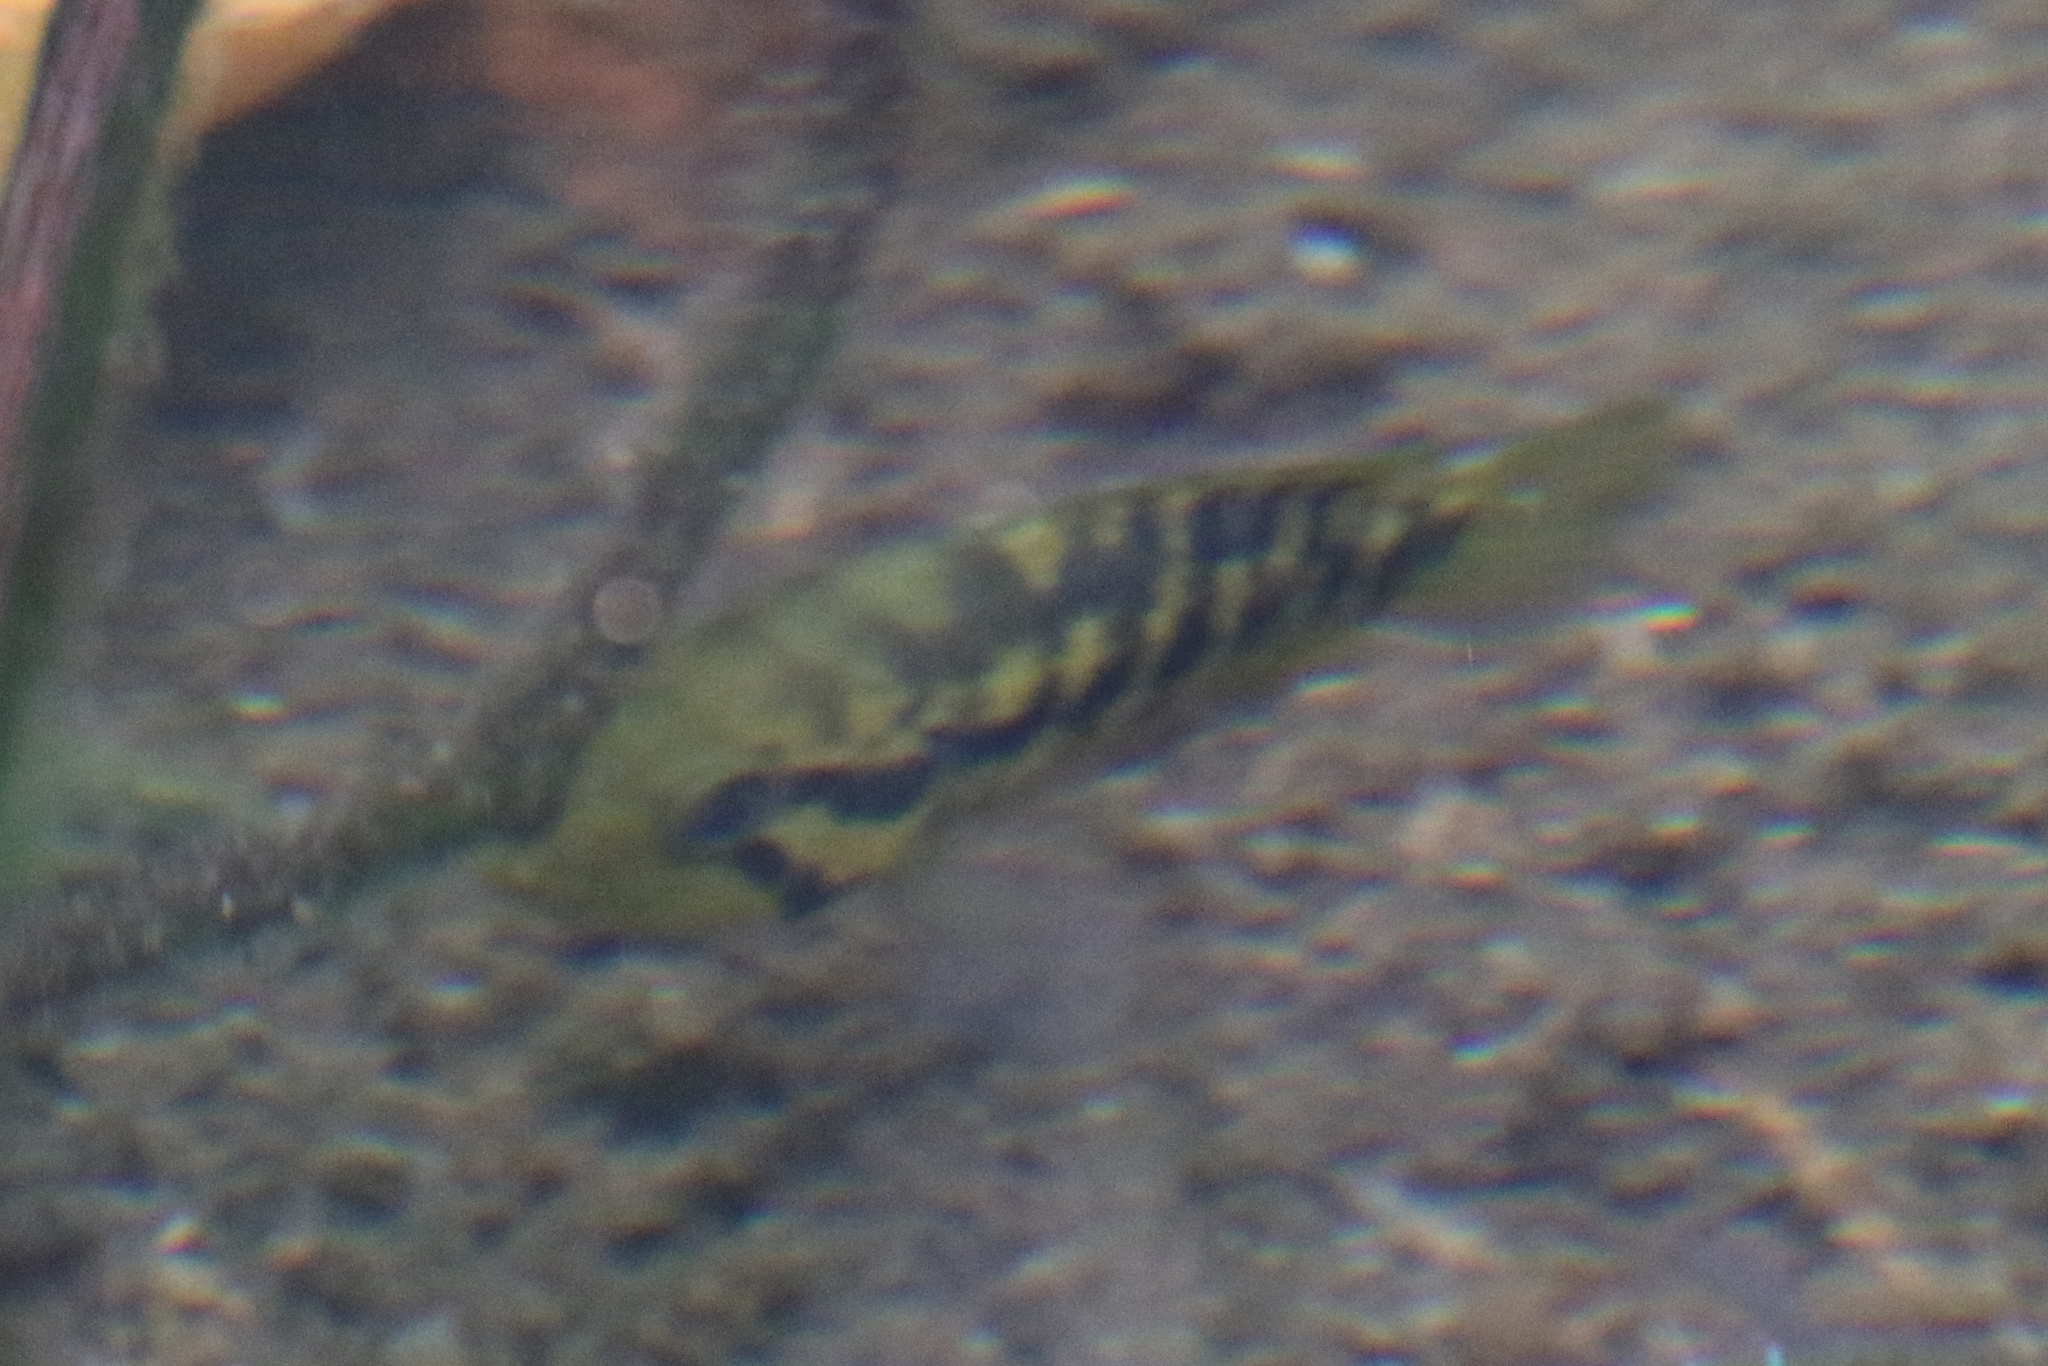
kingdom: Animalia
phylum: Chordata
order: Perciformes
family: Cichlidae
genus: Parachromis
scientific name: Parachromis friedrichsthalii
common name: Monarch cichlid
